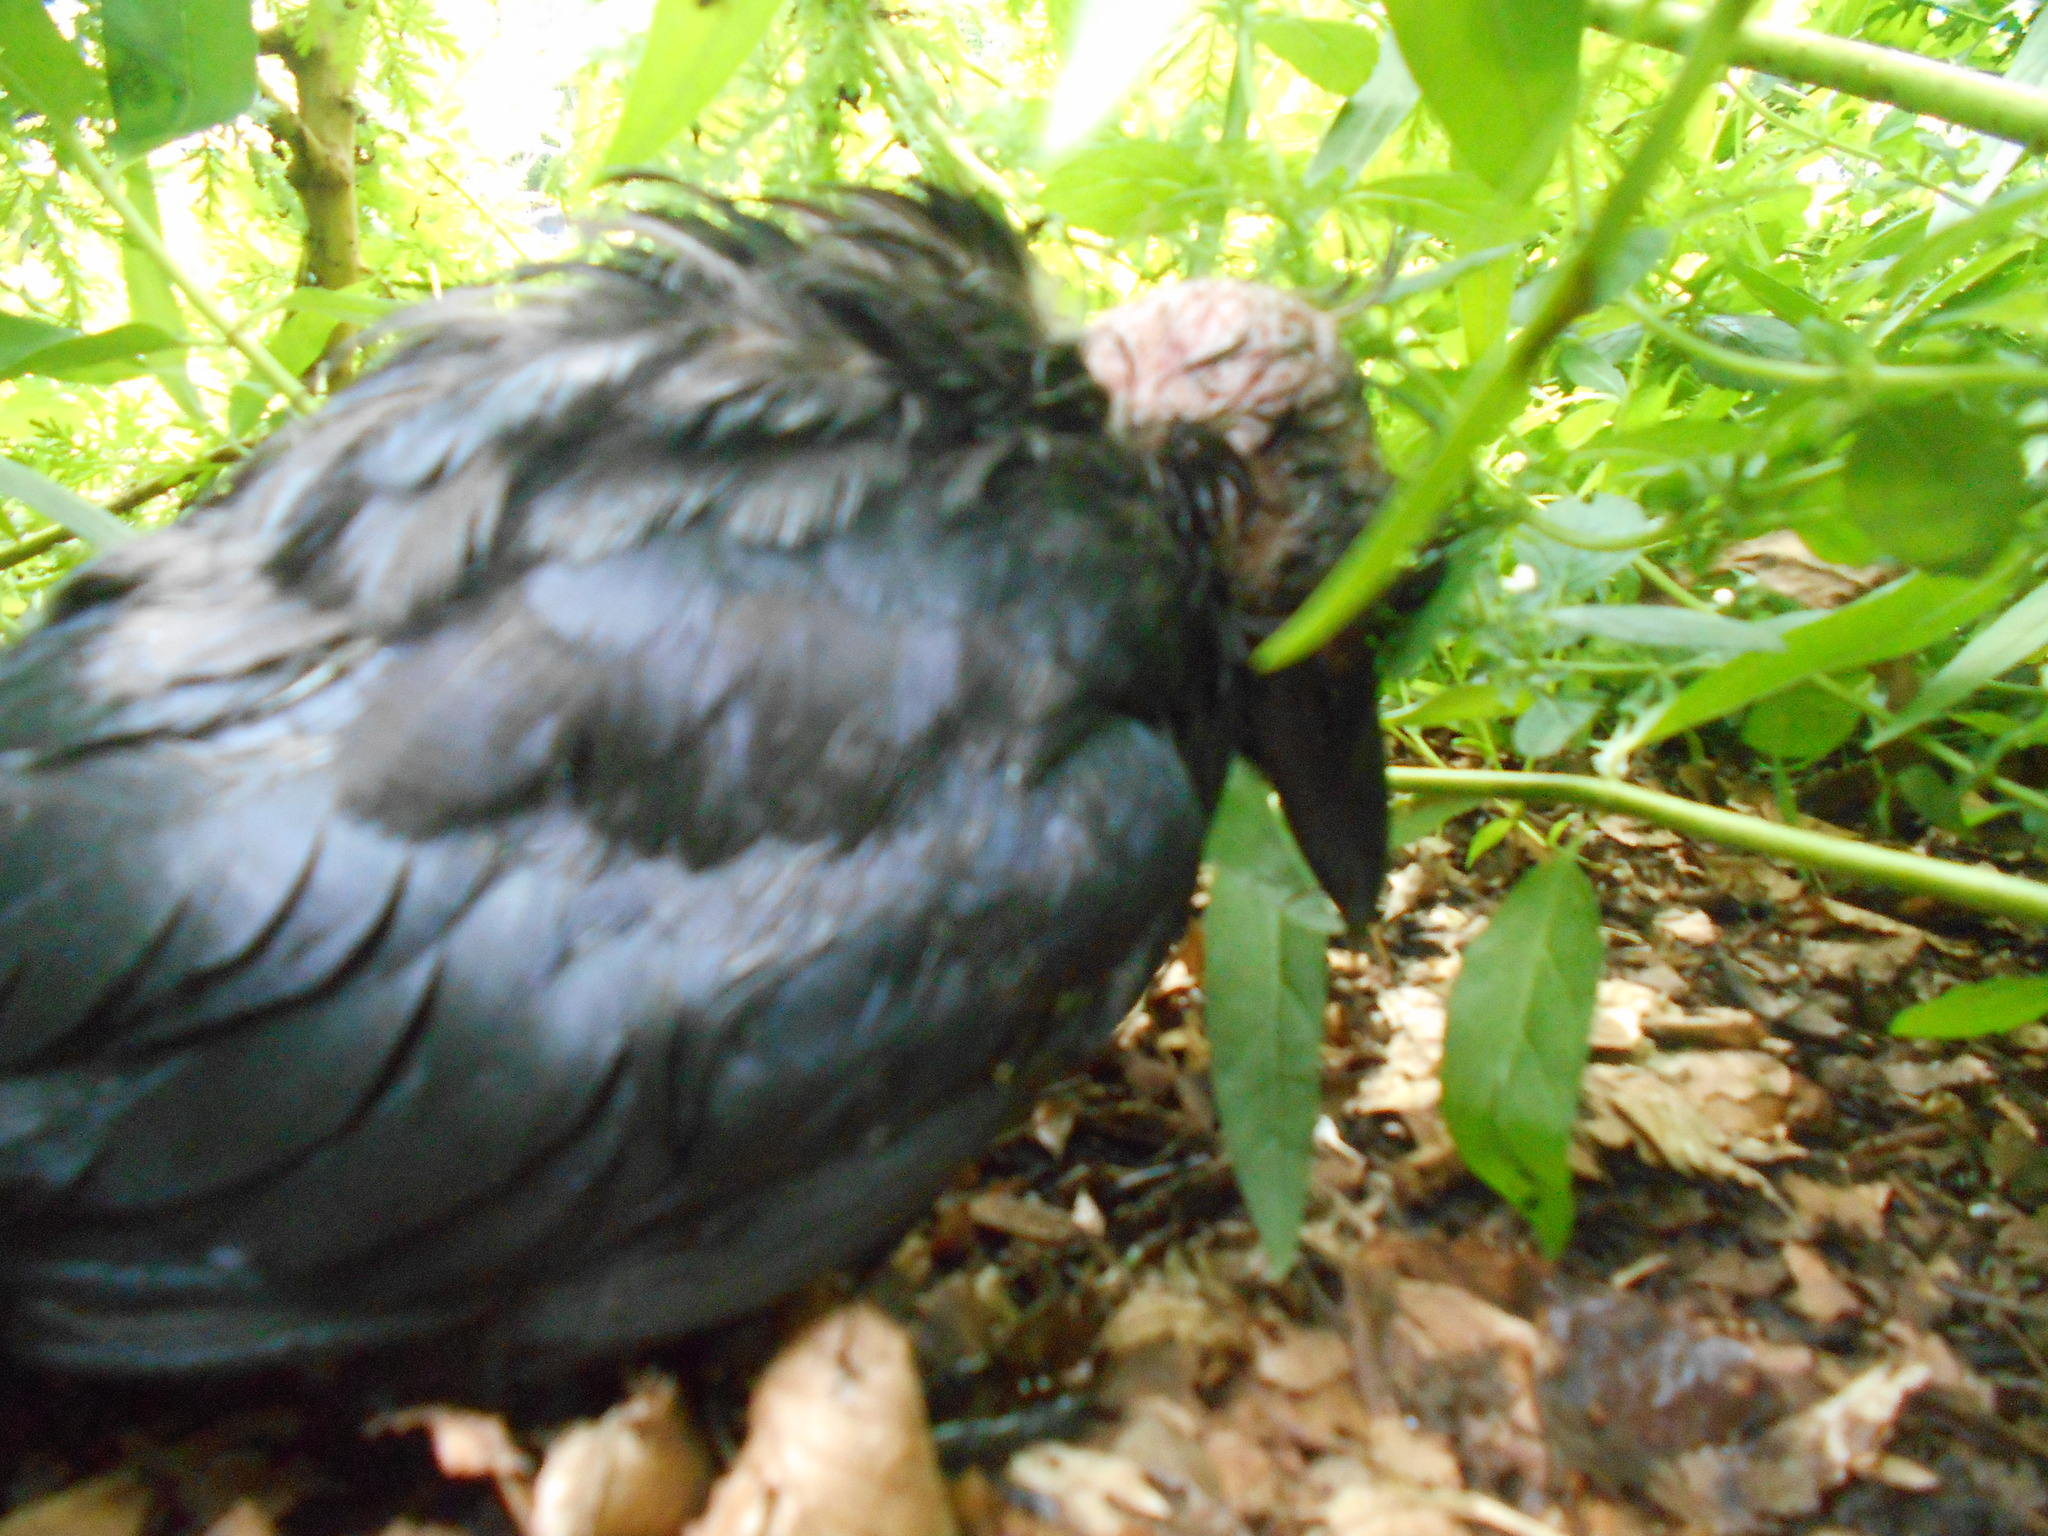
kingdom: Animalia
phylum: Chordata
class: Aves
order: Passeriformes
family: Corvidae
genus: Corvus
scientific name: Corvus
